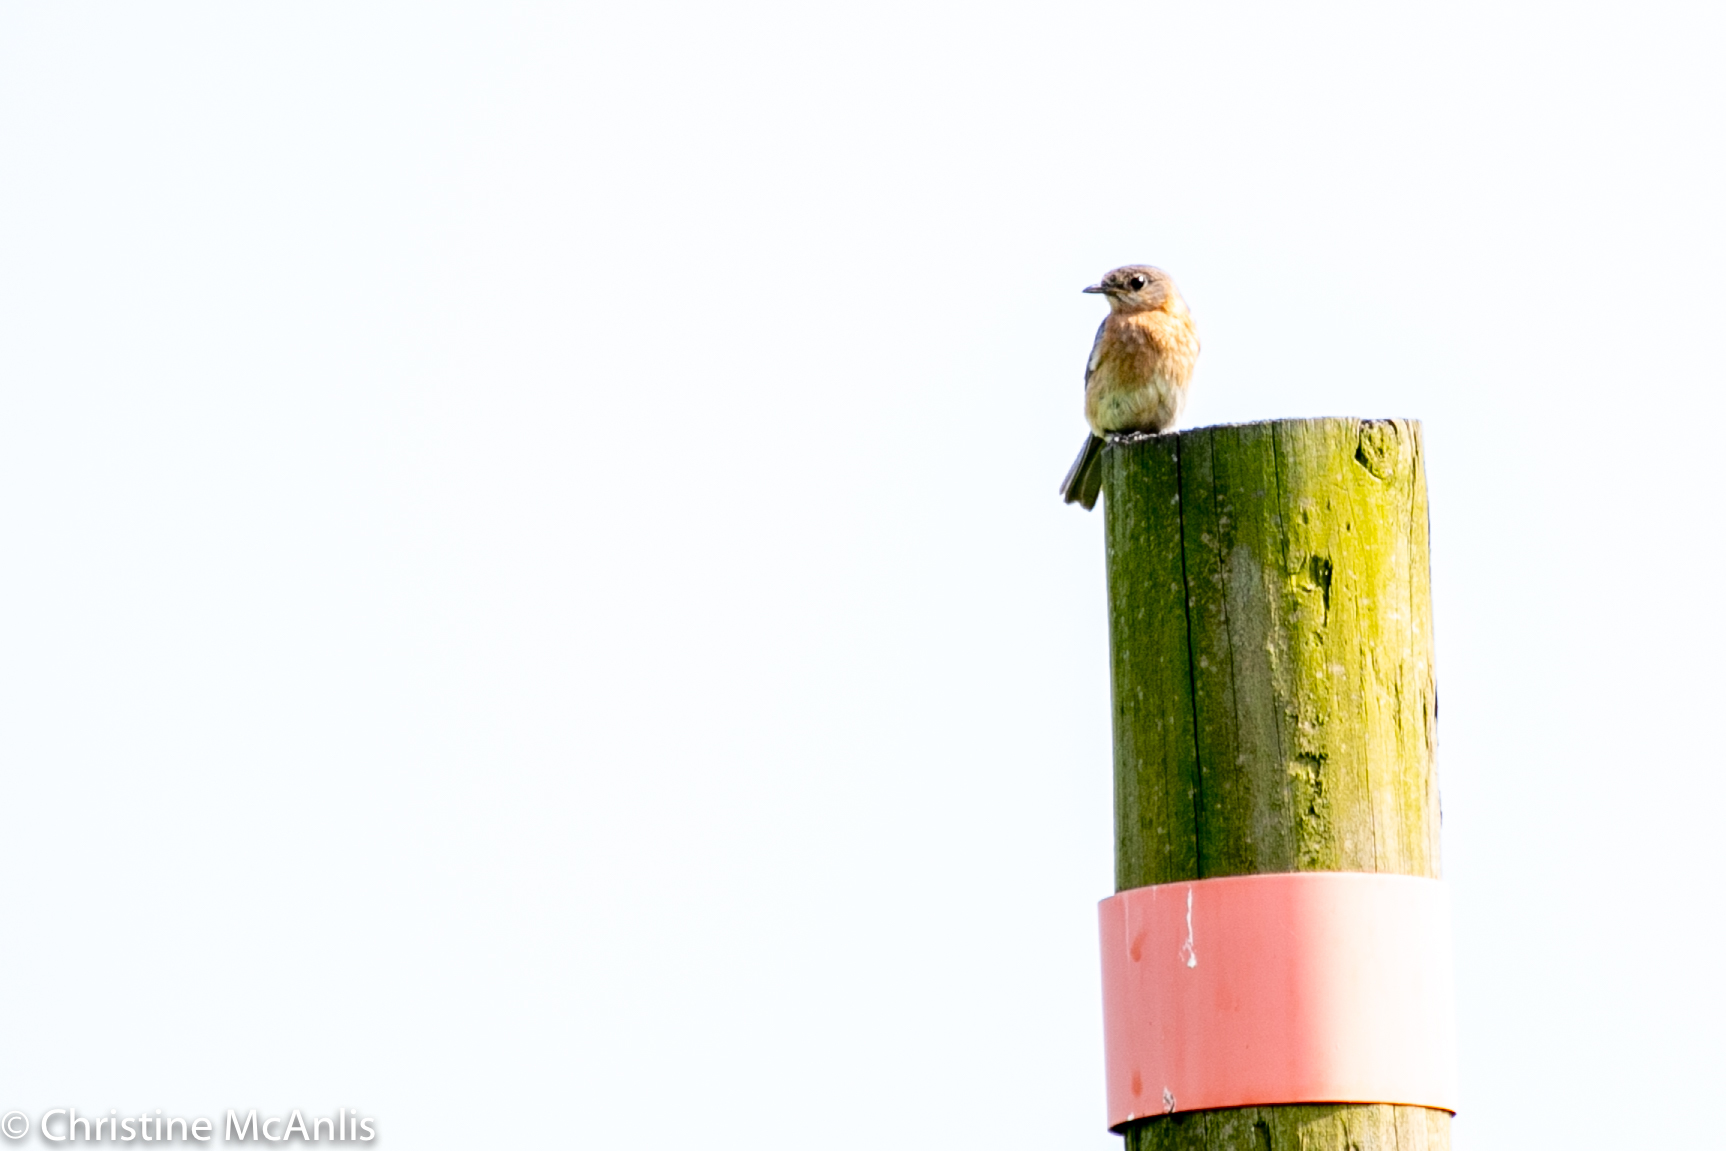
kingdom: Animalia
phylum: Chordata
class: Aves
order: Passeriformes
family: Turdidae
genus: Sialia
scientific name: Sialia sialis
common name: Eastern bluebird
